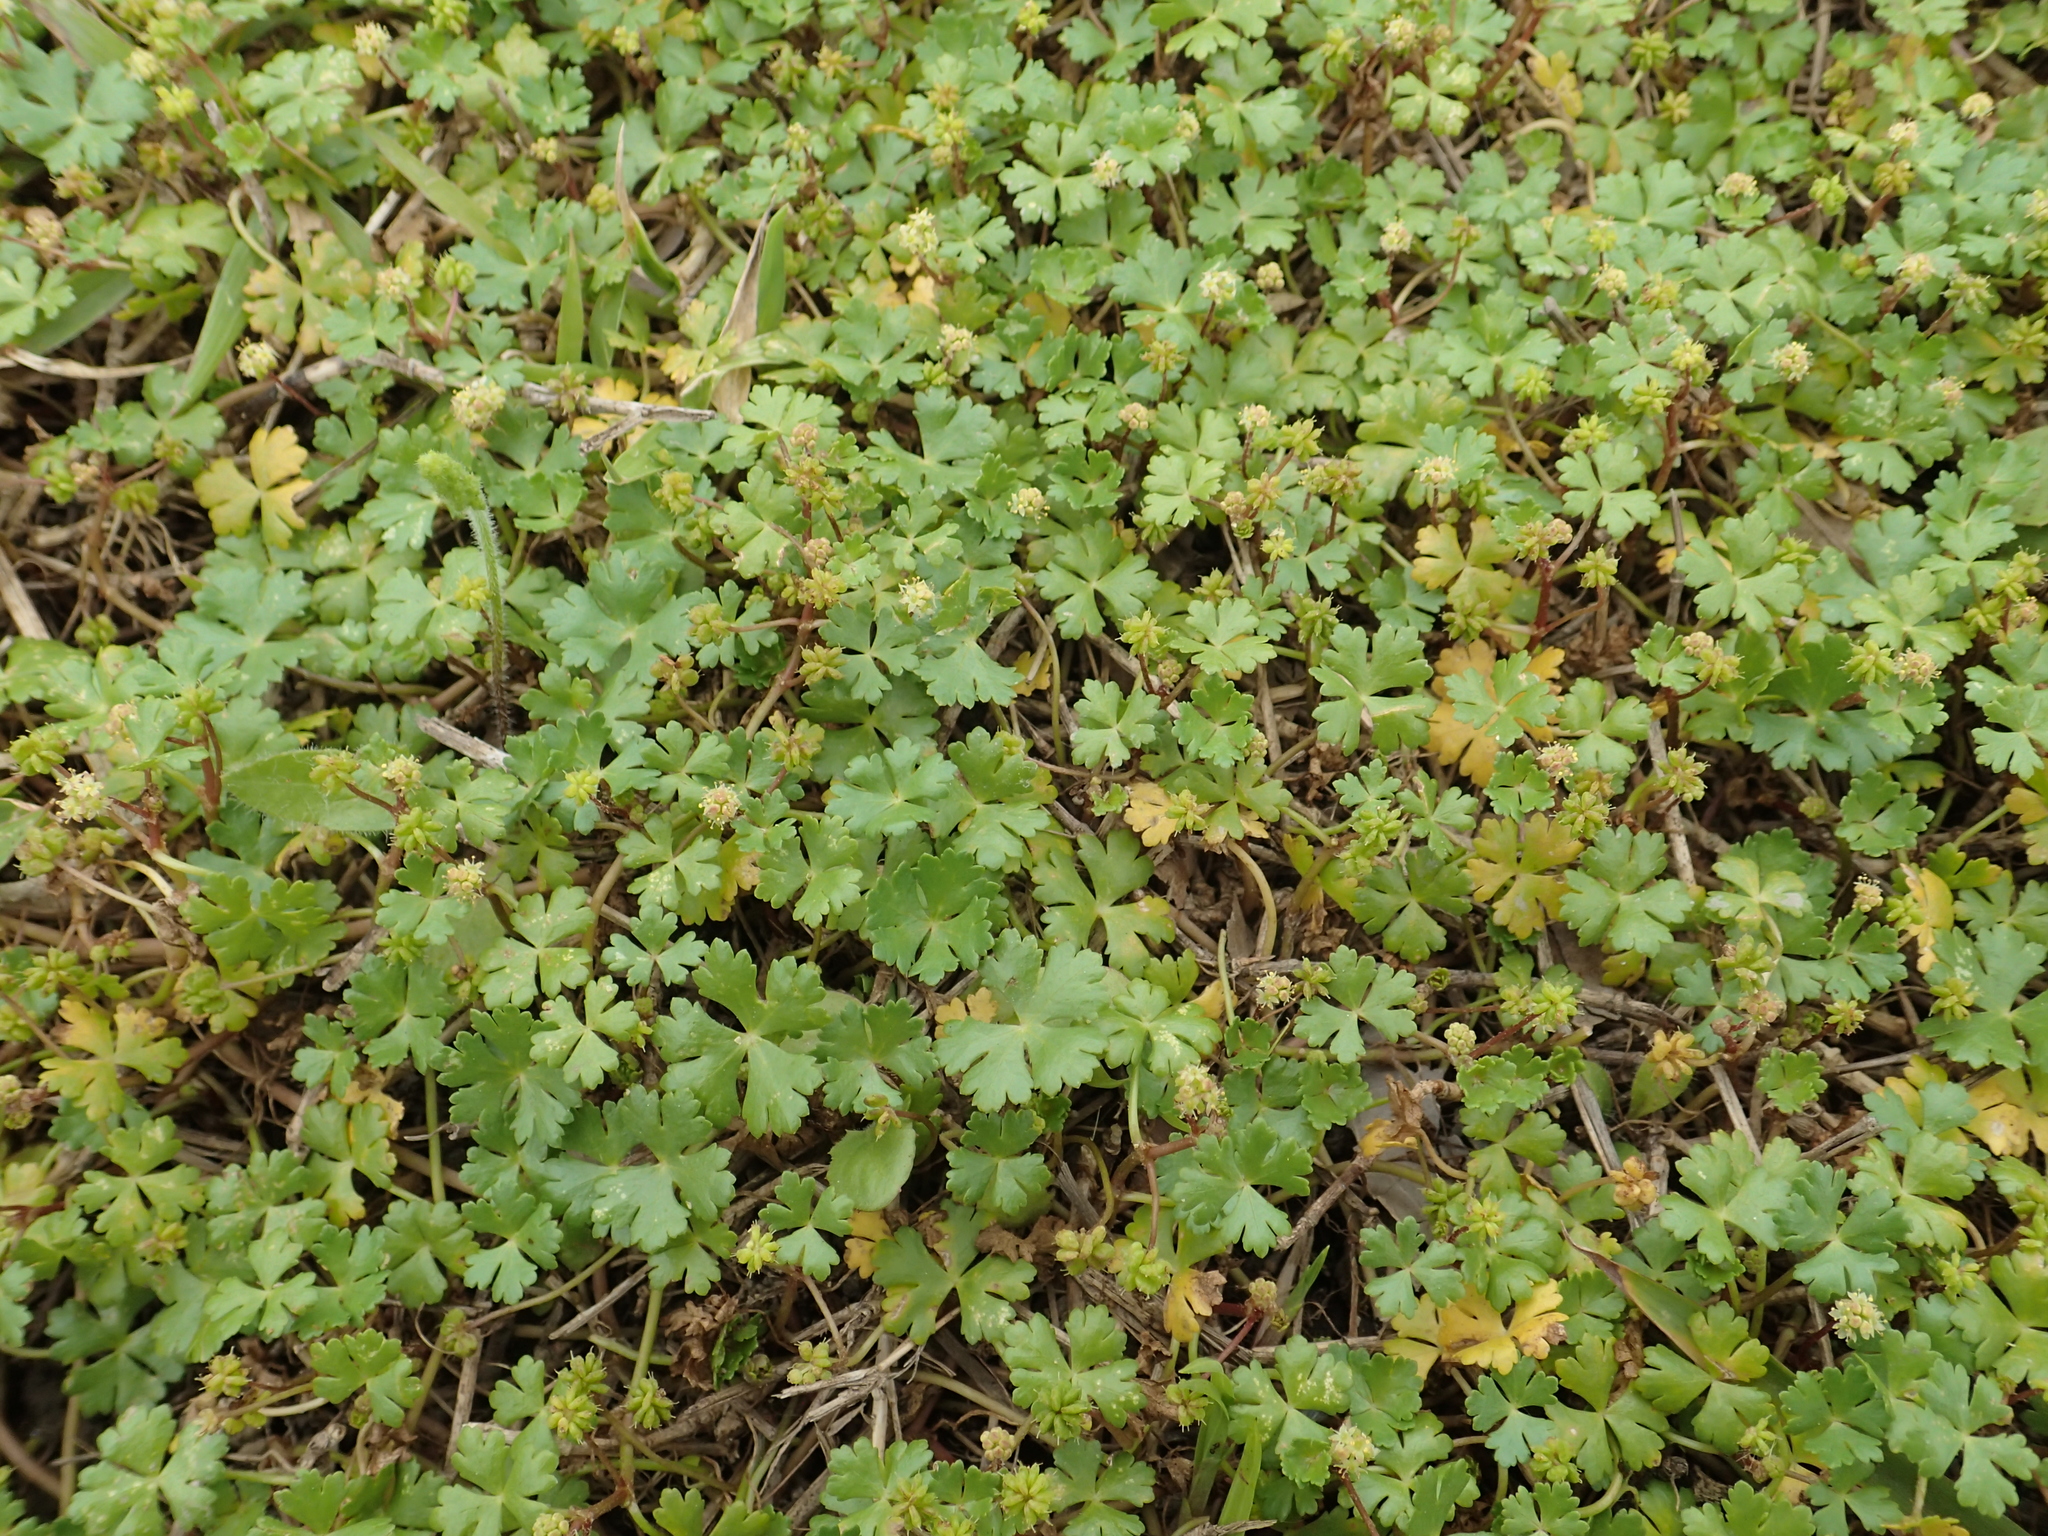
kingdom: Plantae
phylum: Tracheophyta
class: Magnoliopsida
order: Apiales
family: Araliaceae
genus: Hydrocotyle
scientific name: Hydrocotyle batrachium
